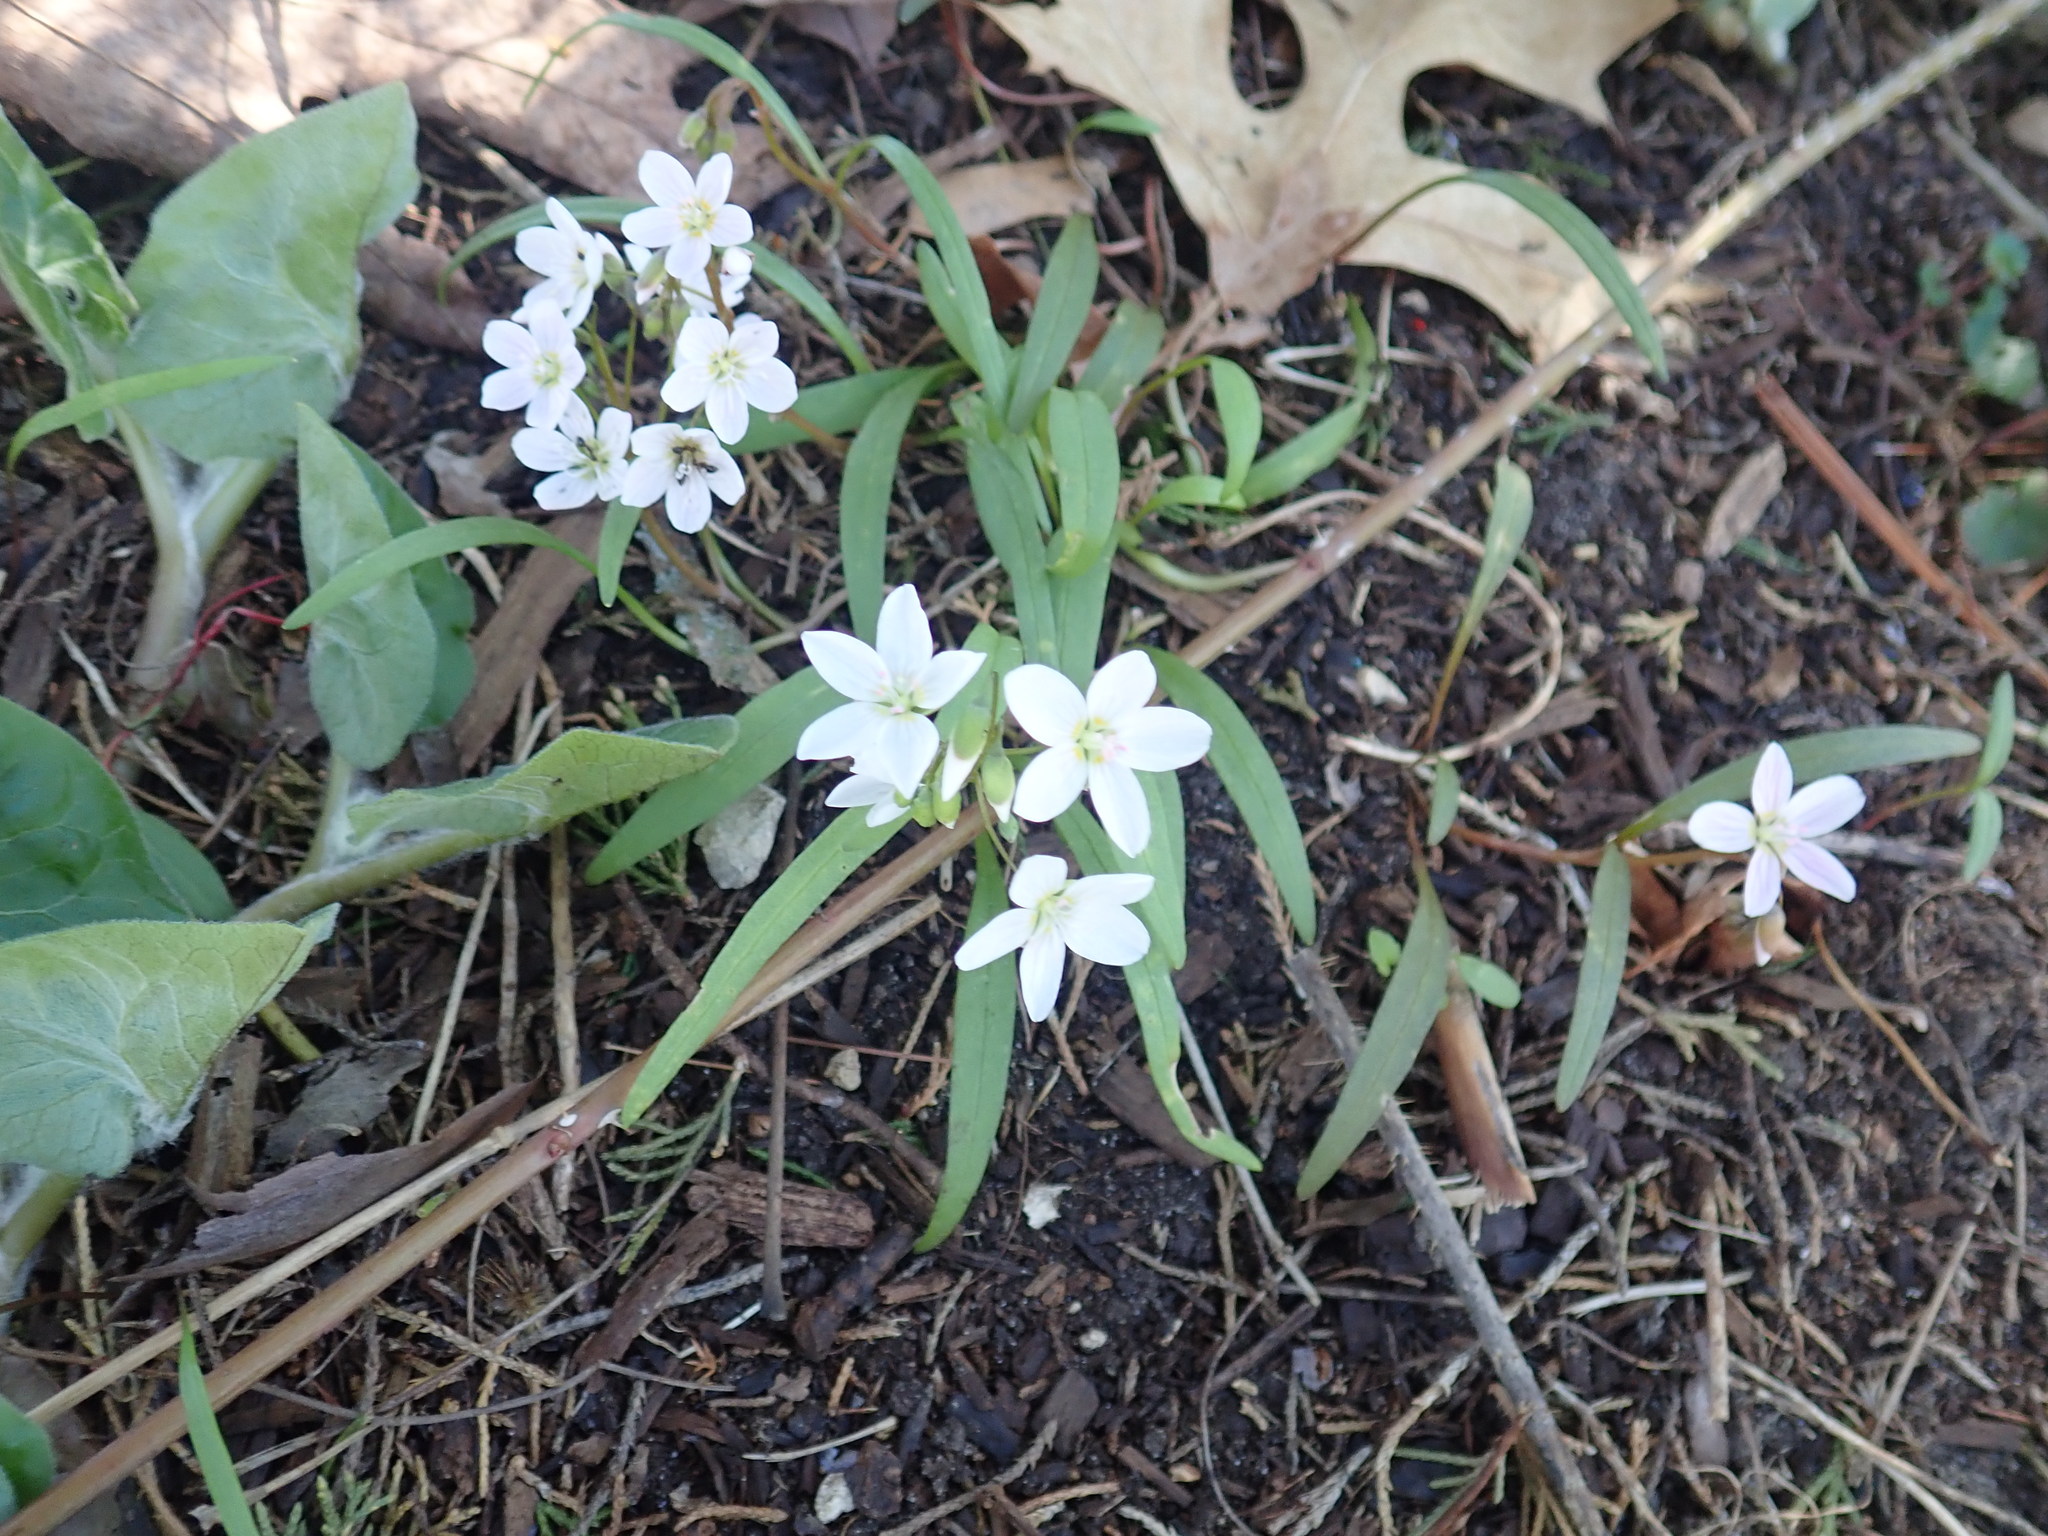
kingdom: Plantae
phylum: Tracheophyta
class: Magnoliopsida
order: Caryophyllales
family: Montiaceae
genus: Claytonia
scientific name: Claytonia virginica
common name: Virginia springbeauty
